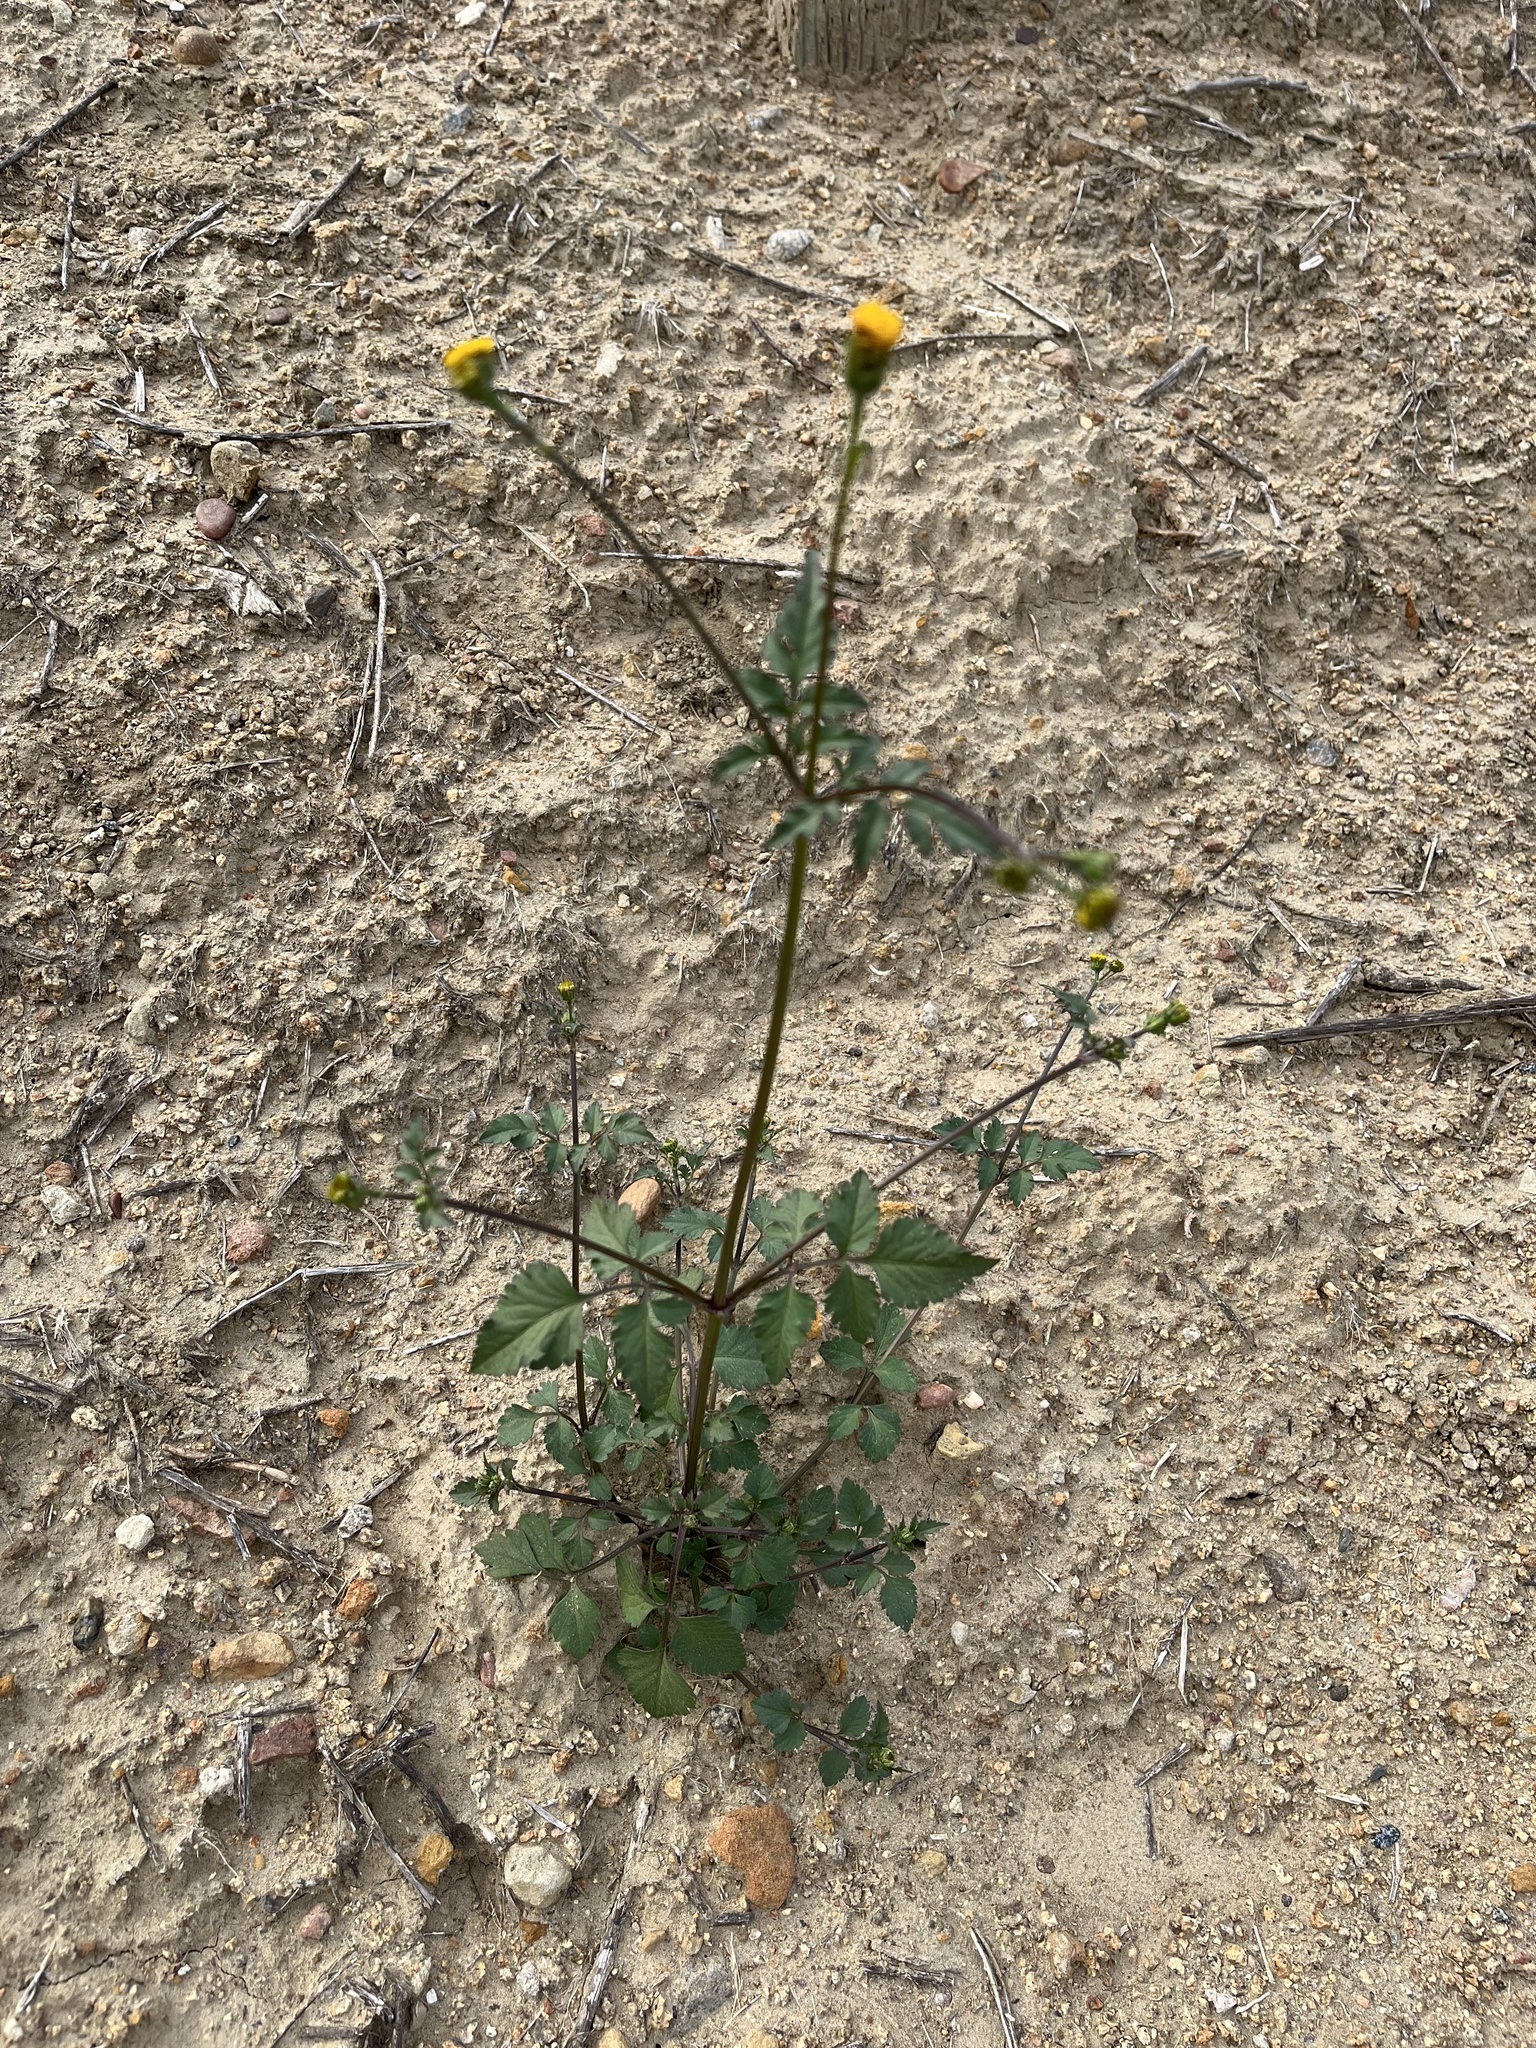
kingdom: Plantae
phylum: Tracheophyta
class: Magnoliopsida
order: Asterales
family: Asteraceae
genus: Bidens
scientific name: Bidens pilosa
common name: Black-jack
